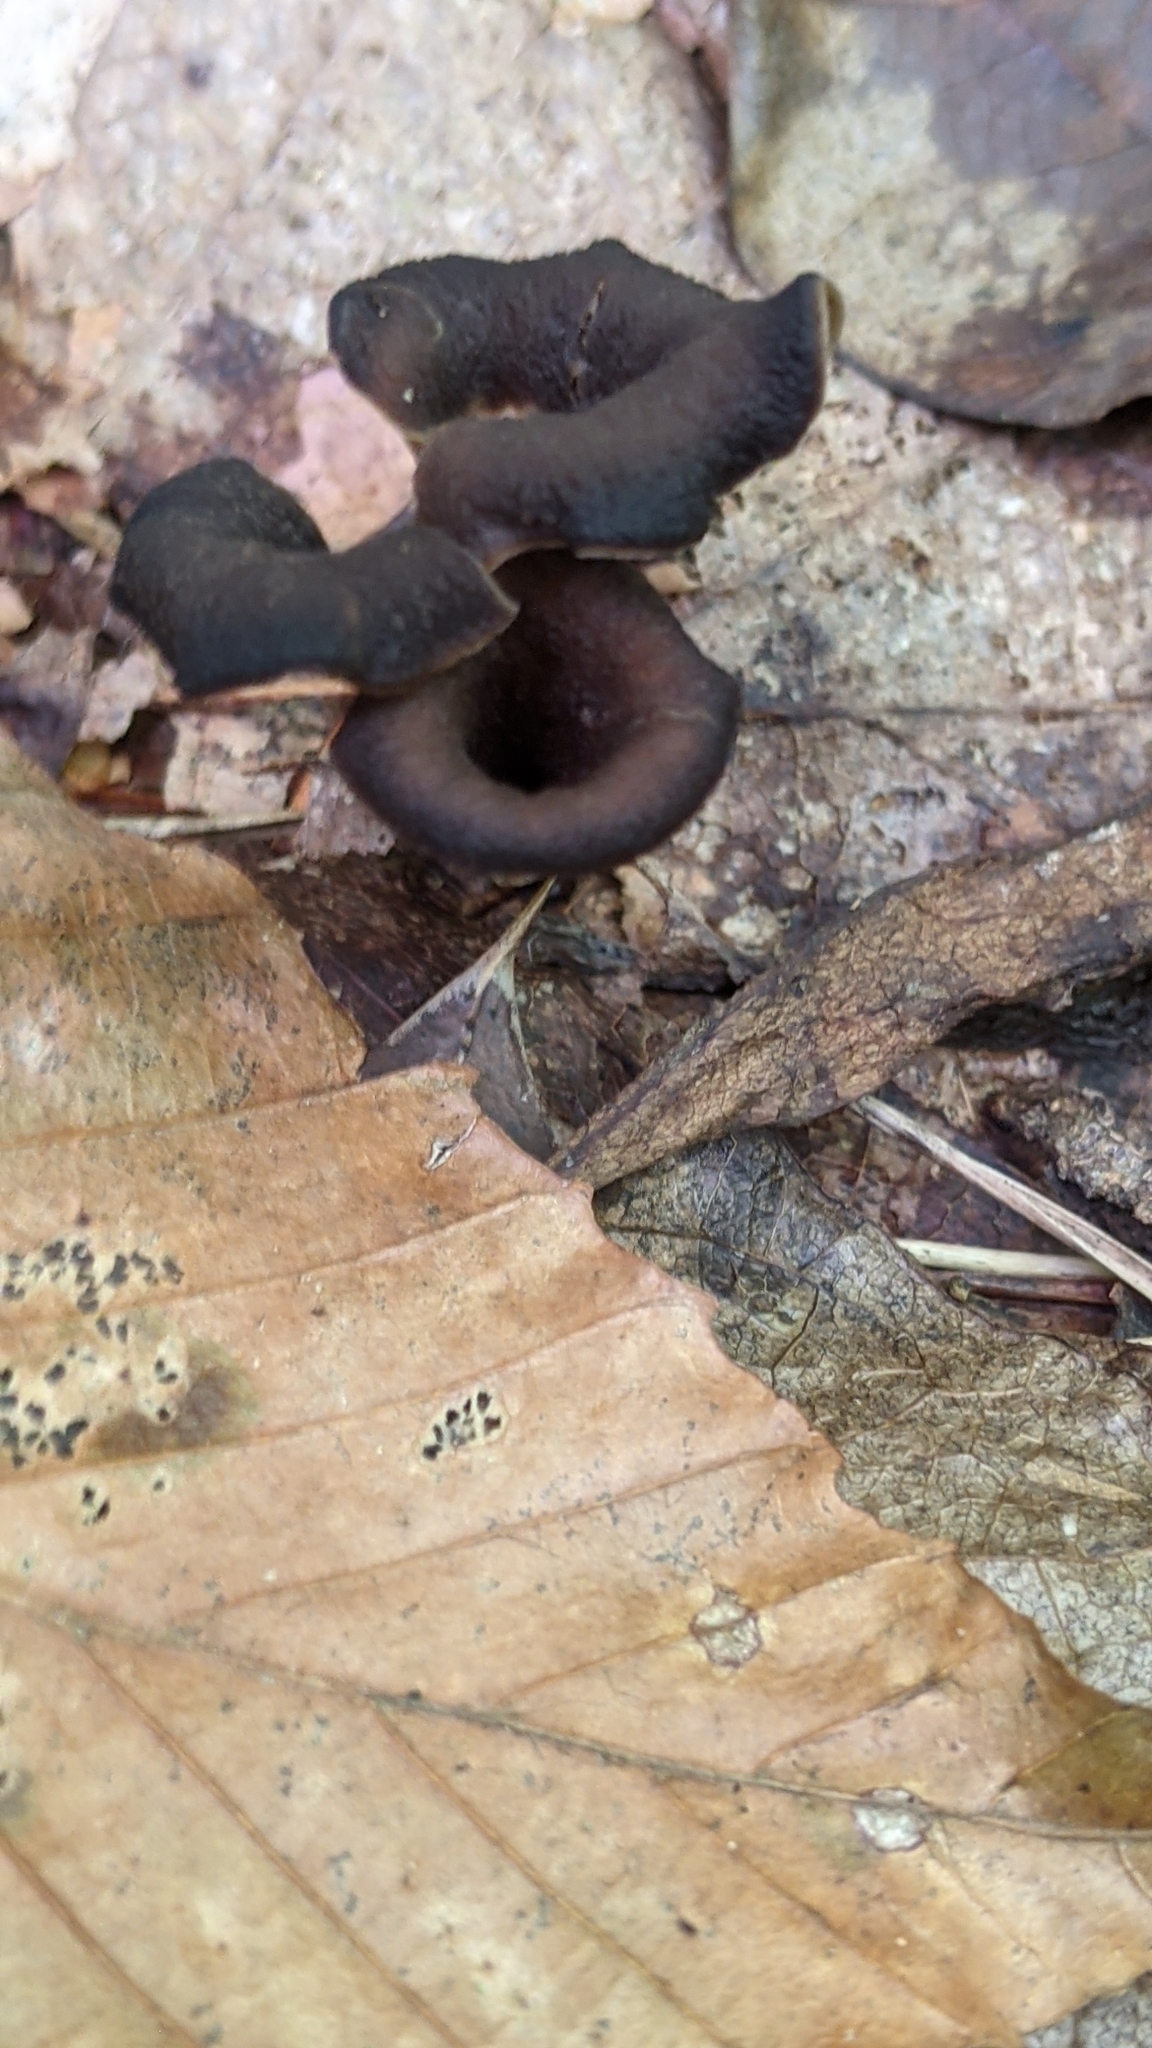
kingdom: Fungi
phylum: Basidiomycota
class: Agaricomycetes
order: Cantharellales
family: Hydnaceae
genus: Craterellus
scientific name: Craterellus cornucopioides
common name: Horn of plenty
